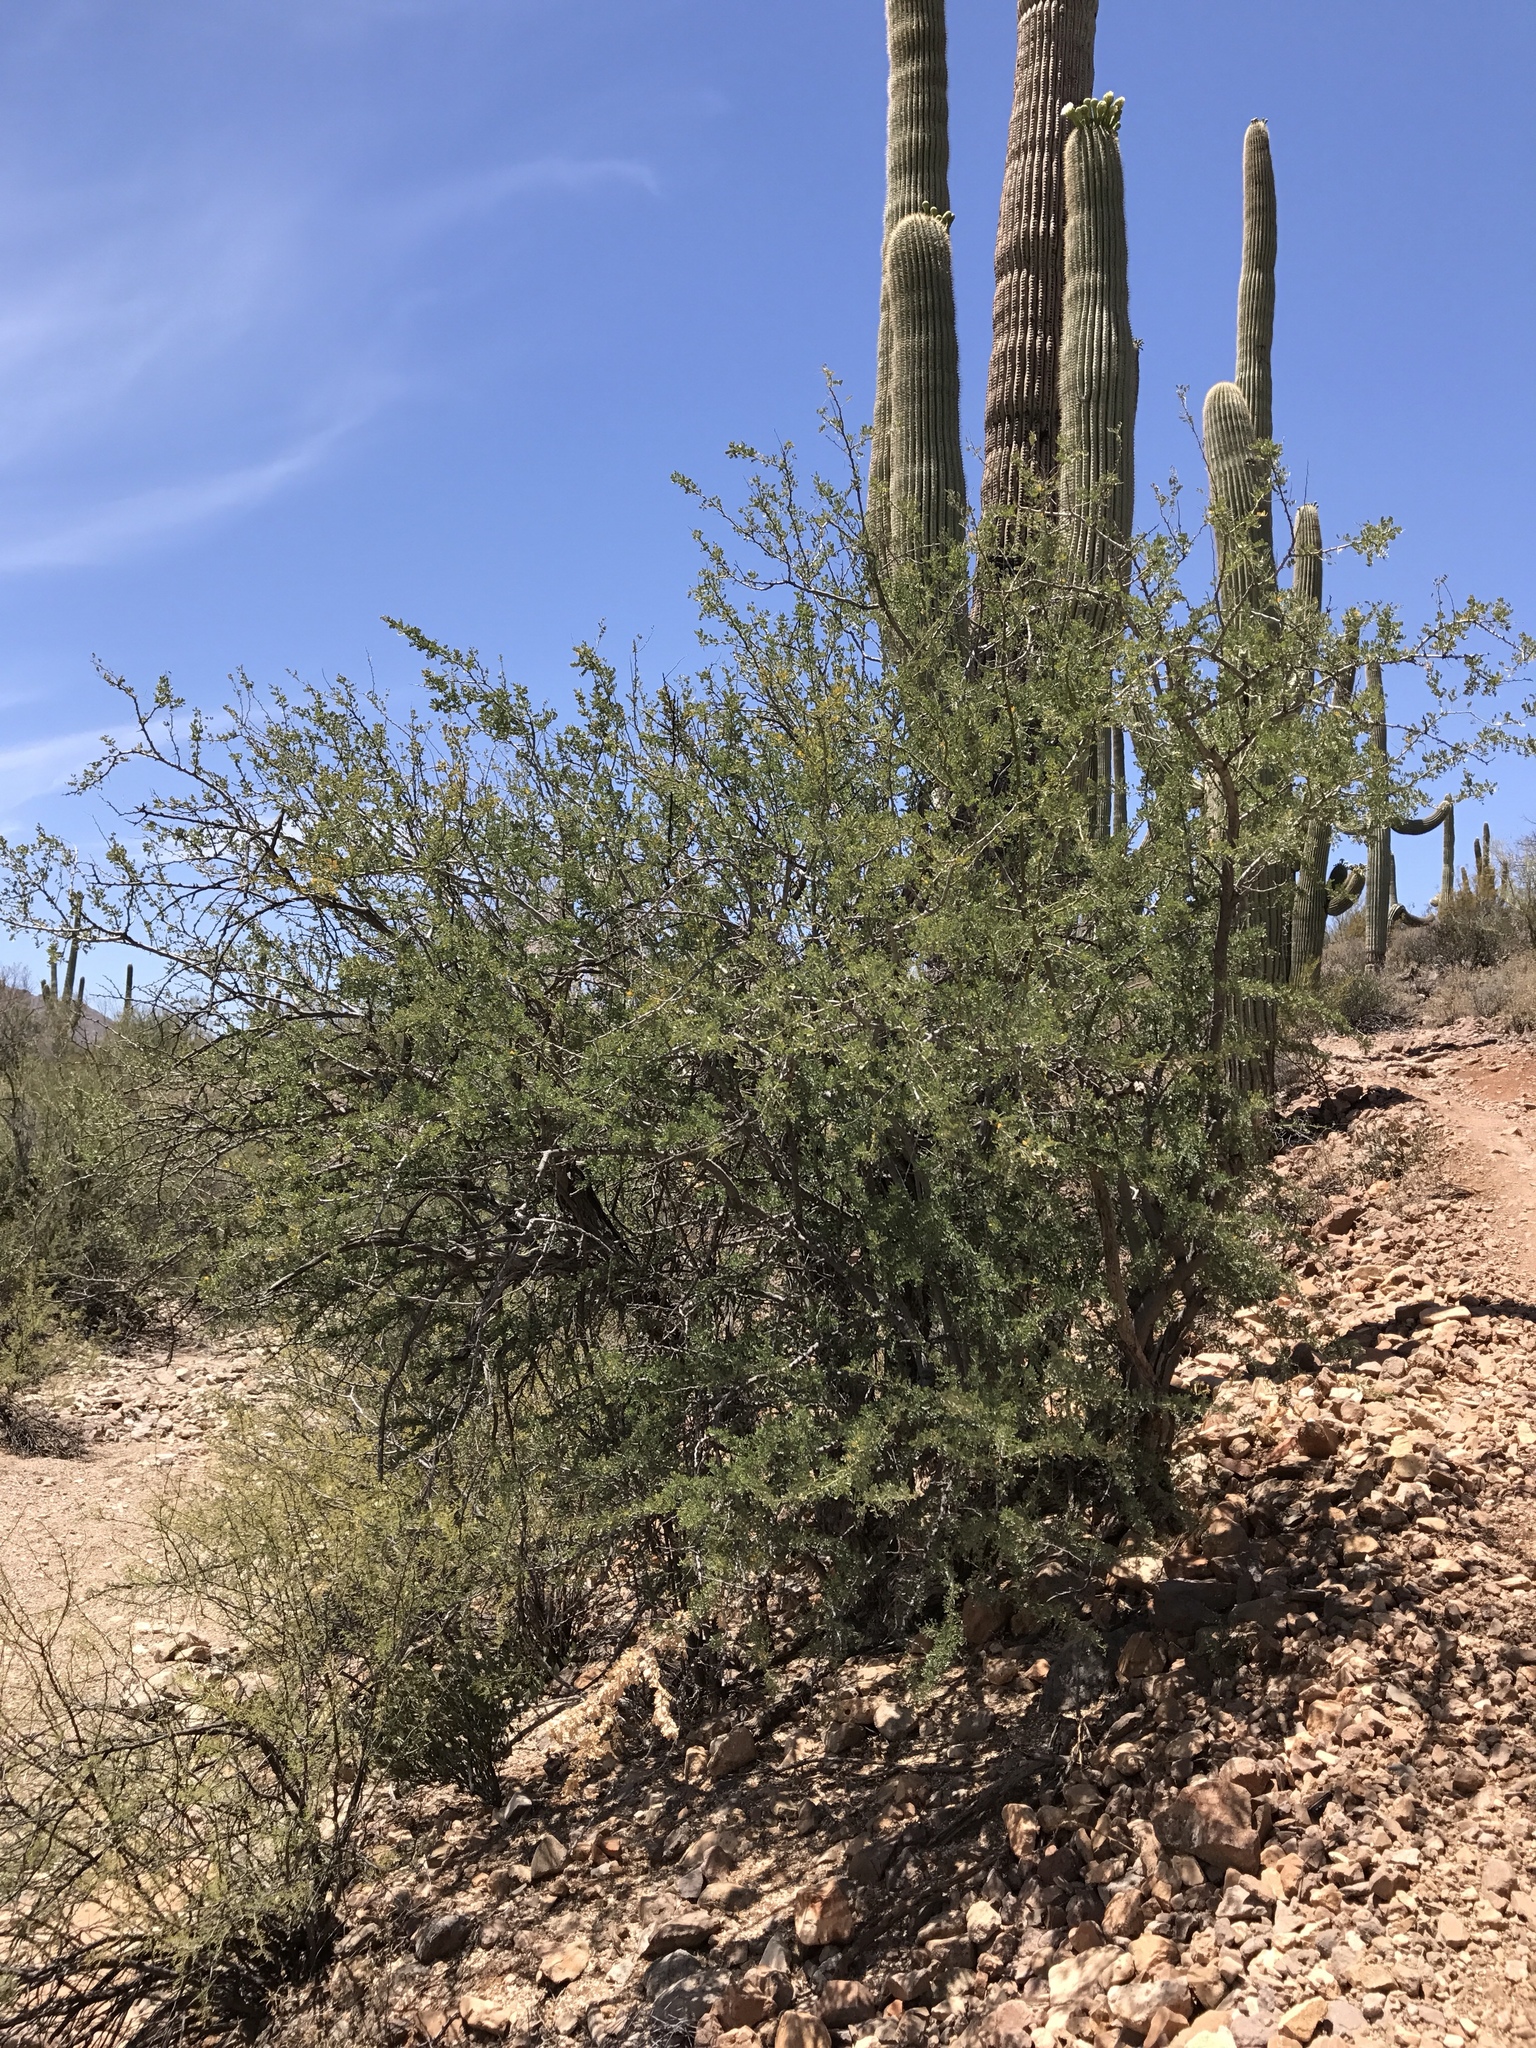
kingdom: Plantae
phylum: Tracheophyta
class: Magnoliopsida
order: Fabales
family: Fabaceae
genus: Olneya
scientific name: Olneya tesota
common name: Desert ironwood
